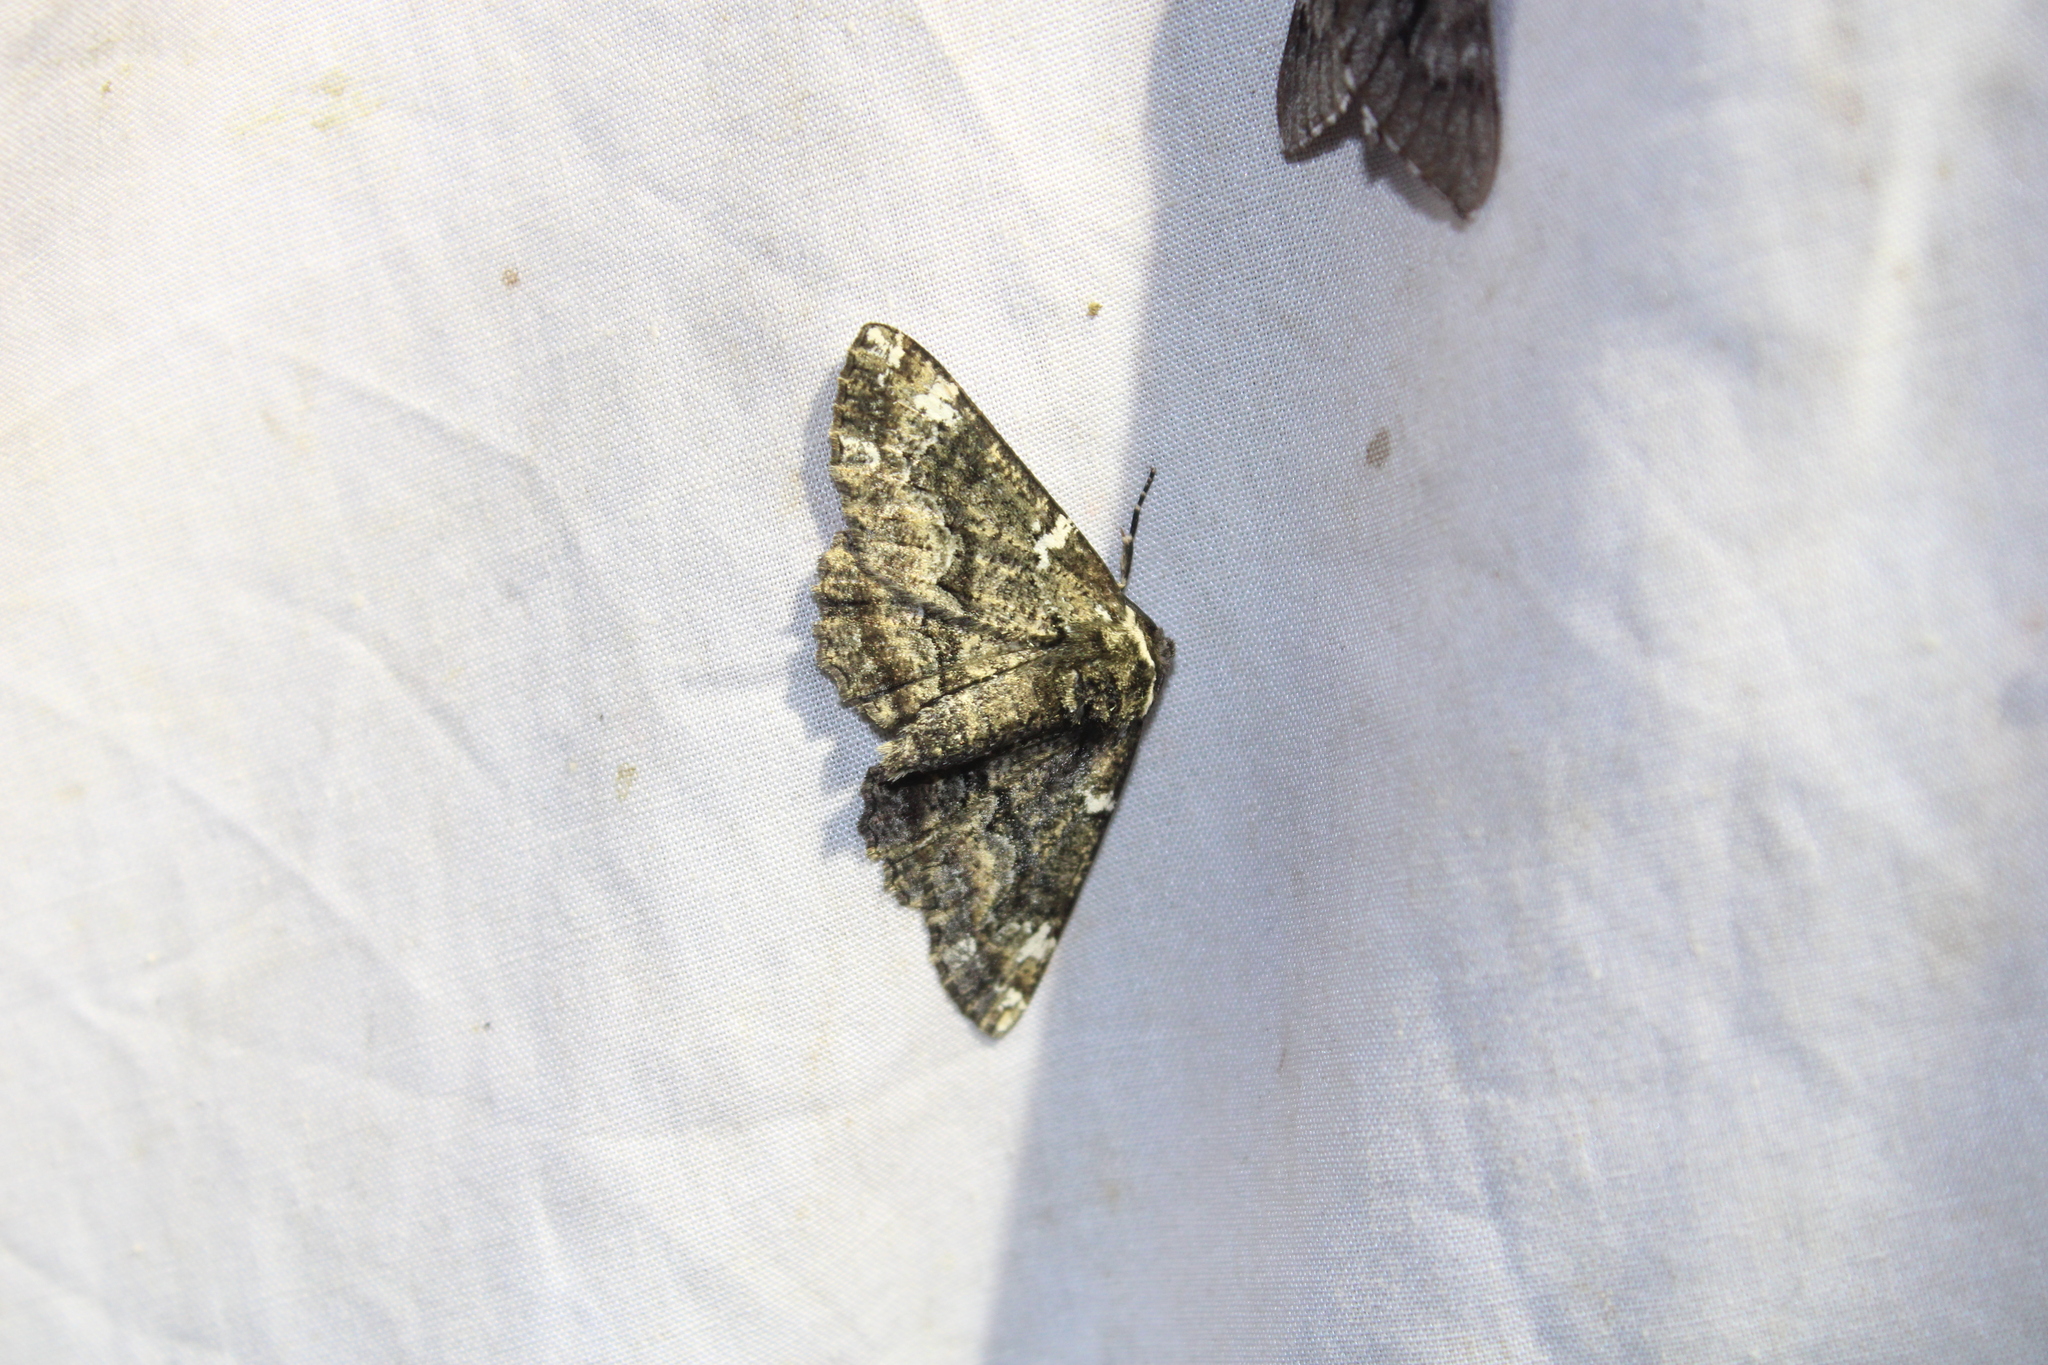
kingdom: Animalia
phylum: Arthropoda
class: Insecta
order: Lepidoptera
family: Geometridae
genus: Phaeoura
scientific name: Phaeoura quernaria
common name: Oak beauty
